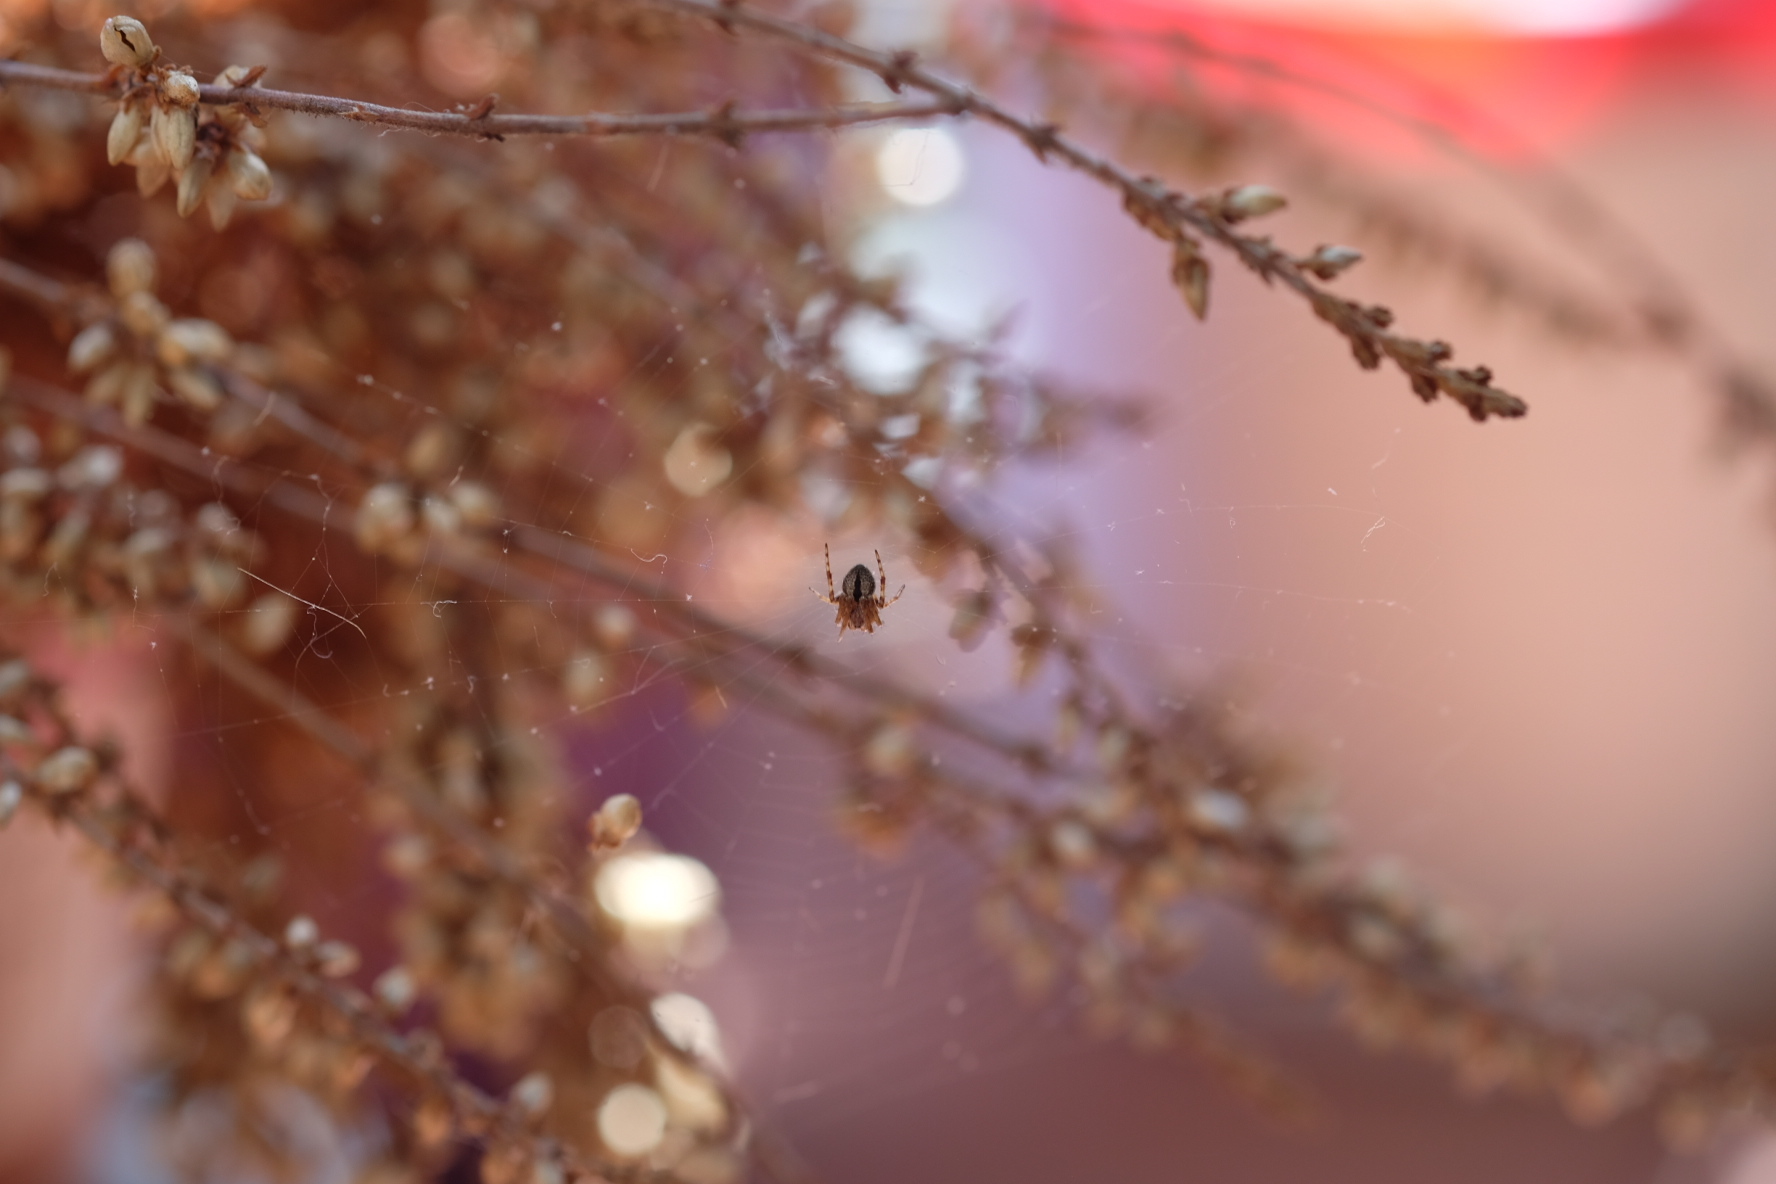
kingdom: Animalia
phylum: Arthropoda
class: Arachnida
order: Araneae
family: Araneidae
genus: Agalenatea
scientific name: Agalenatea redii
